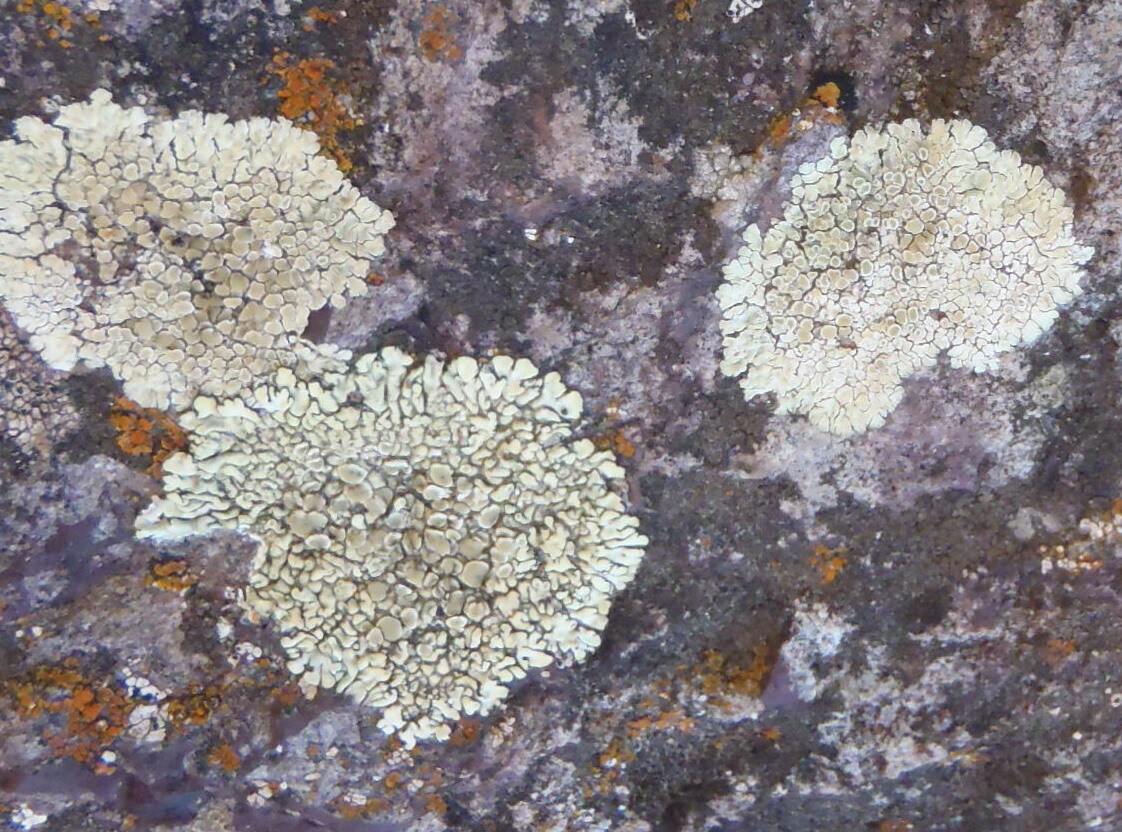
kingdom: Fungi
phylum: Ascomycota
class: Lecanoromycetes
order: Lecanorales
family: Lecanoraceae
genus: Protoparmeliopsis
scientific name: Protoparmeliopsis muralis
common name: Stonewall rim lichen
